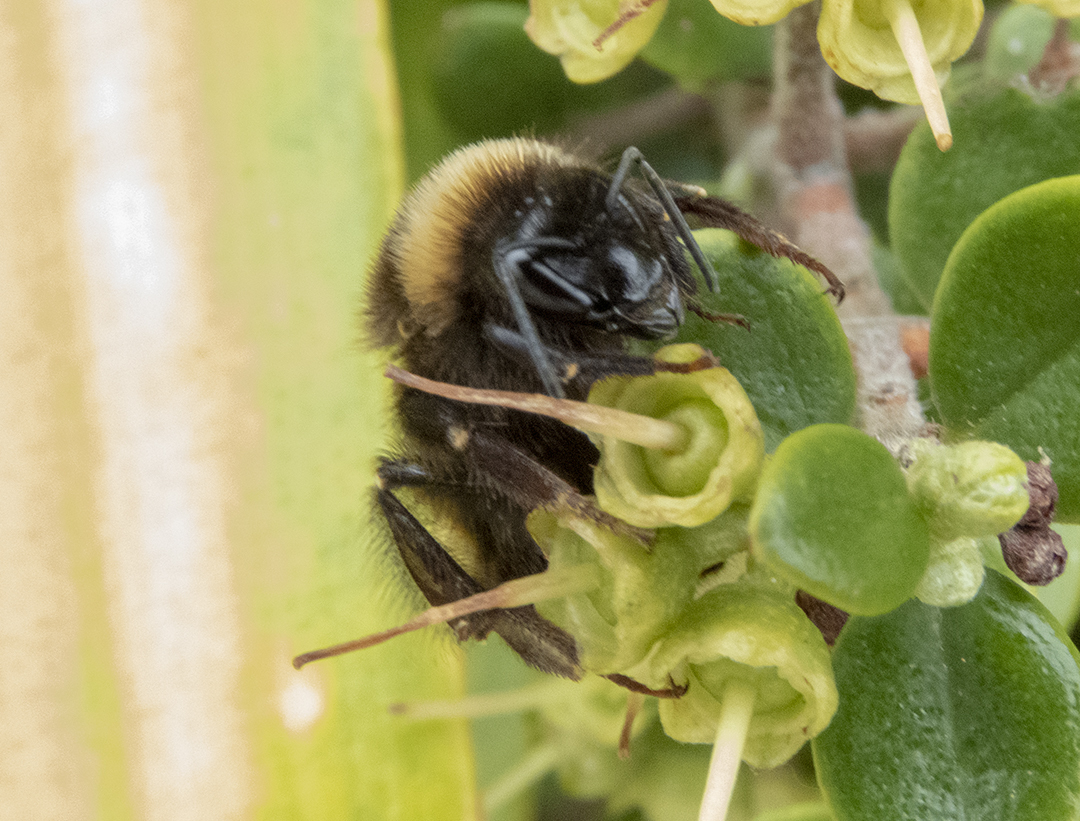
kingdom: Animalia
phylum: Arthropoda
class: Insecta
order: Hymenoptera
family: Apidae
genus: Bombus
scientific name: Bombus terrestris
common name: Buff-tailed bumblebee
